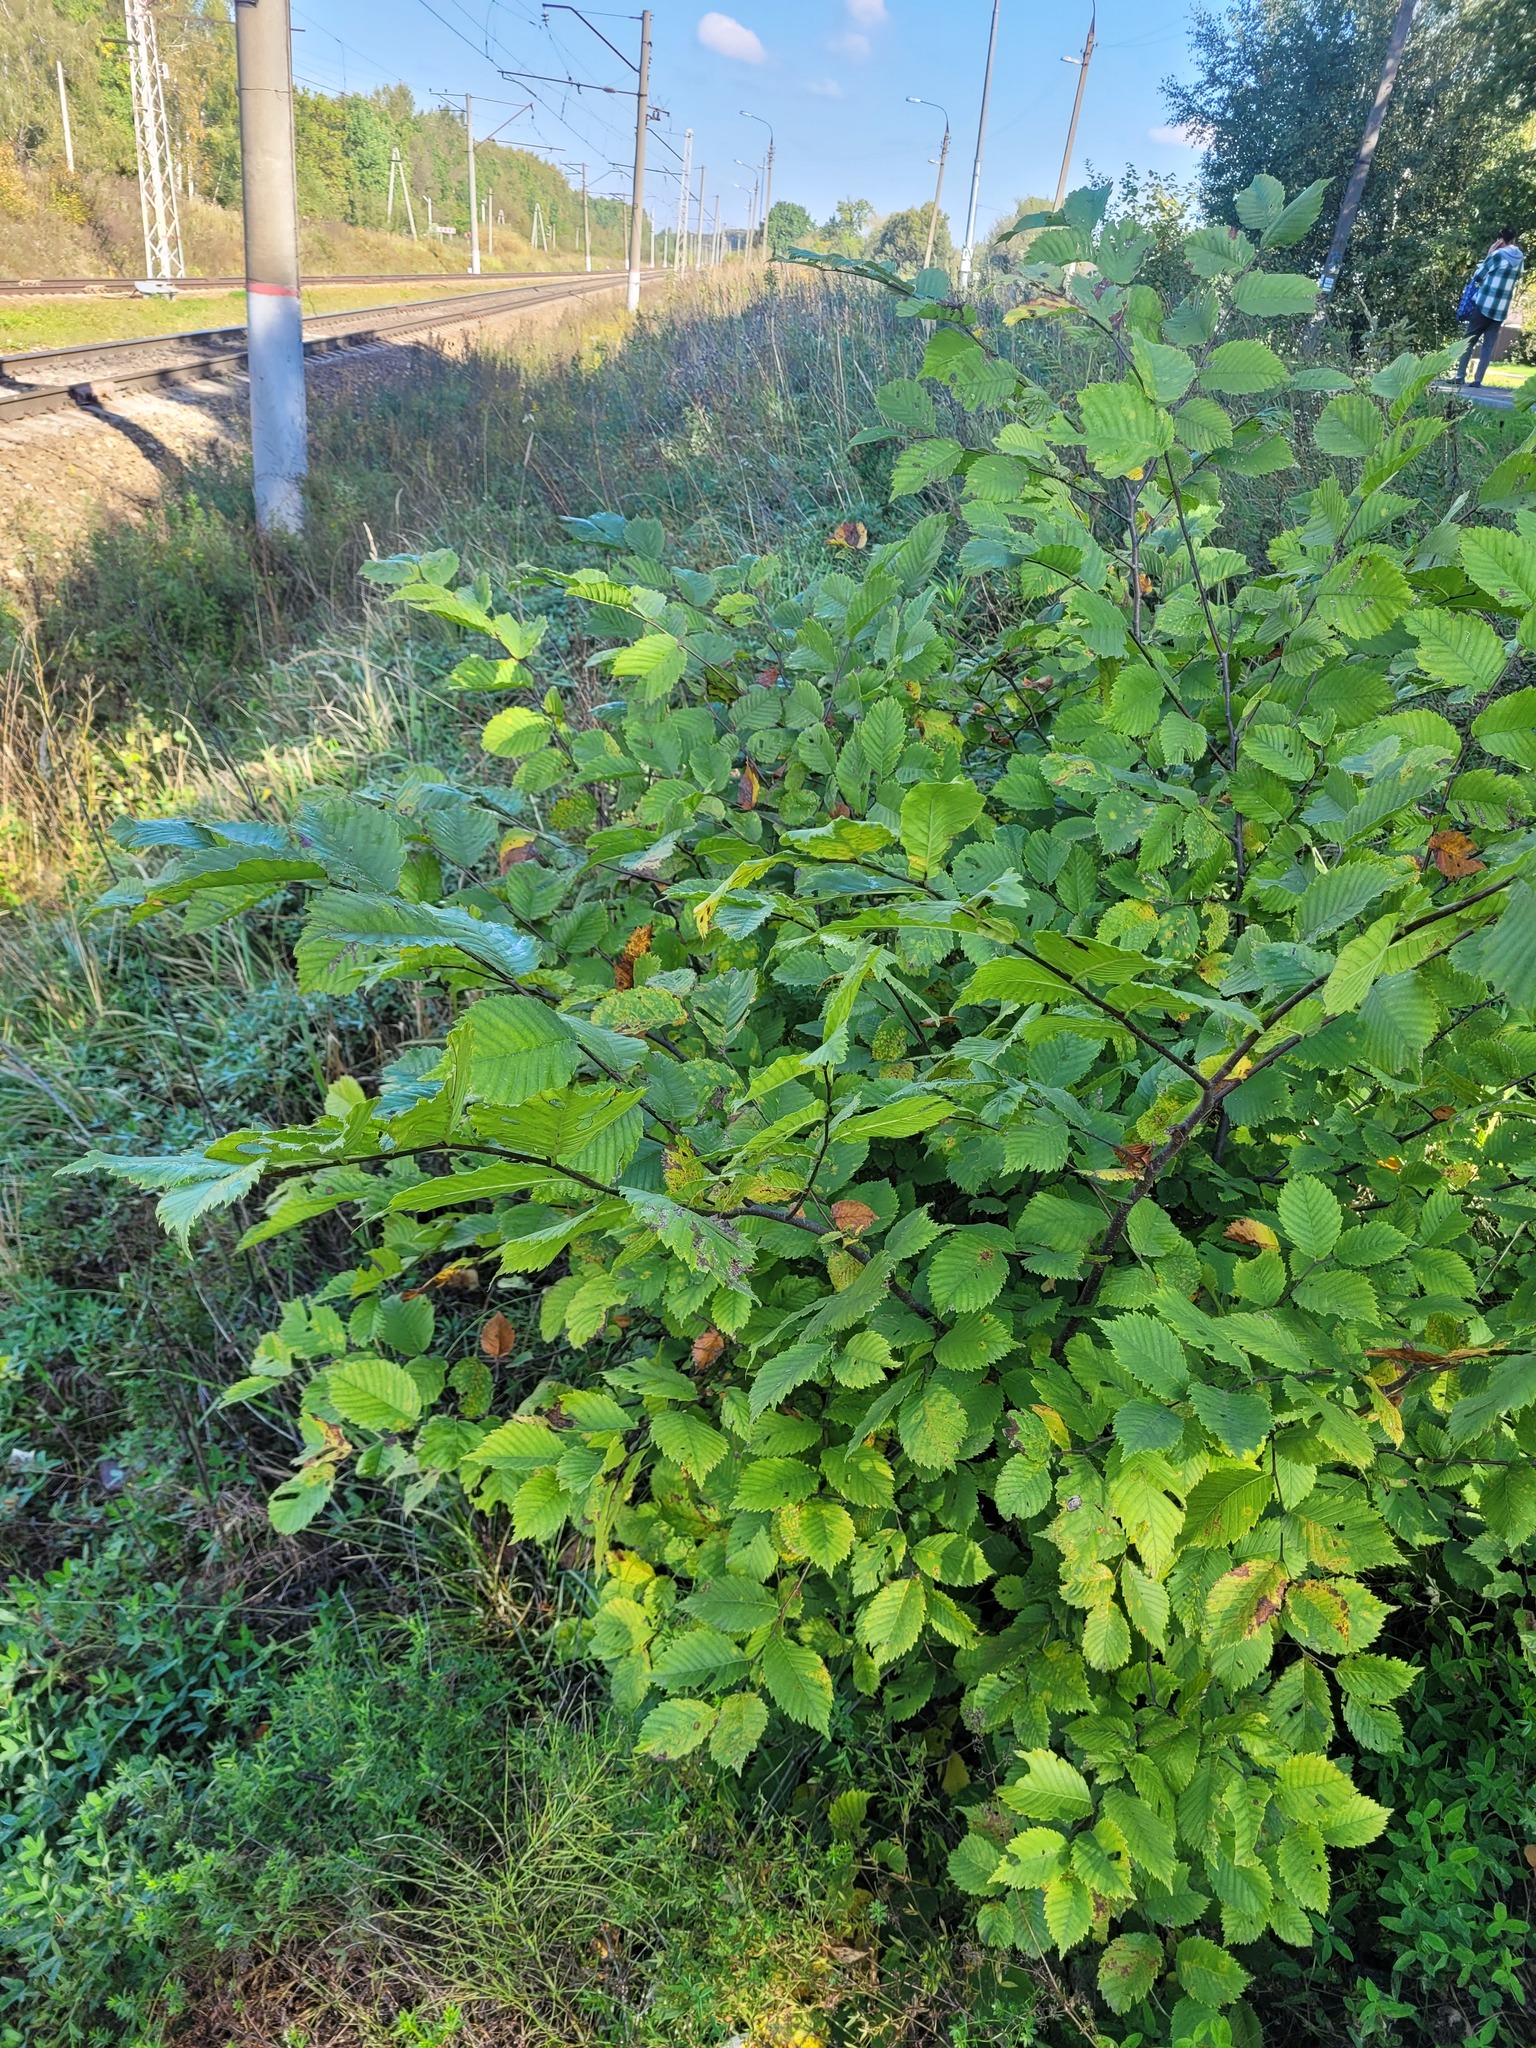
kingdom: Plantae
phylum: Tracheophyta
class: Magnoliopsida
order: Rosales
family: Ulmaceae
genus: Ulmus
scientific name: Ulmus laevis
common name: European white-elm
